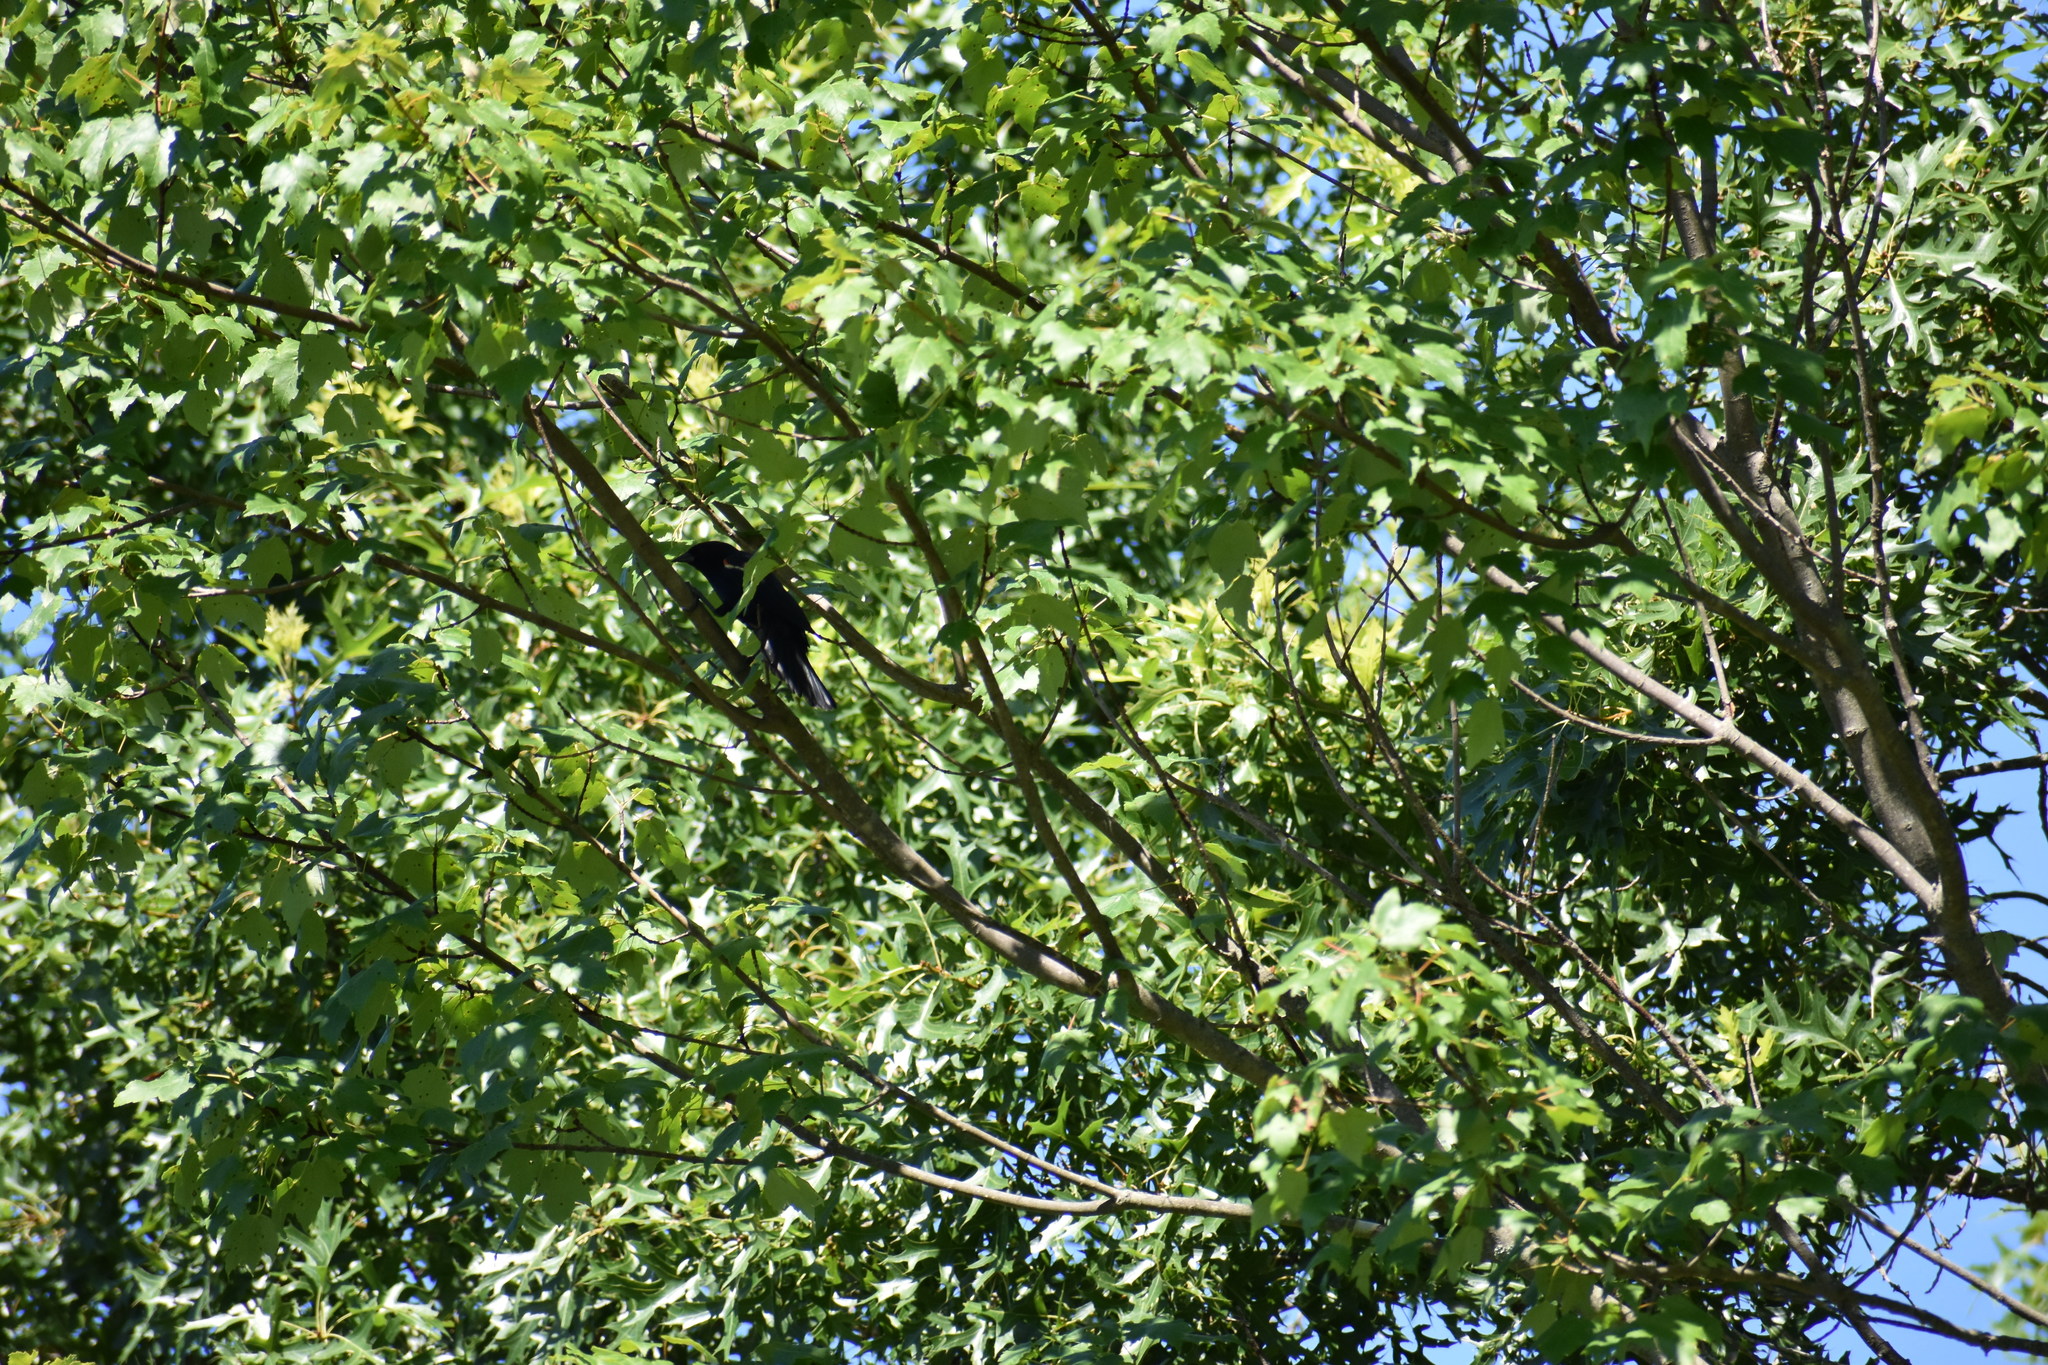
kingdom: Animalia
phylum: Chordata
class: Aves
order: Passeriformes
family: Icteridae
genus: Agelaius
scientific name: Agelaius phoeniceus
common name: Red-winged blackbird
